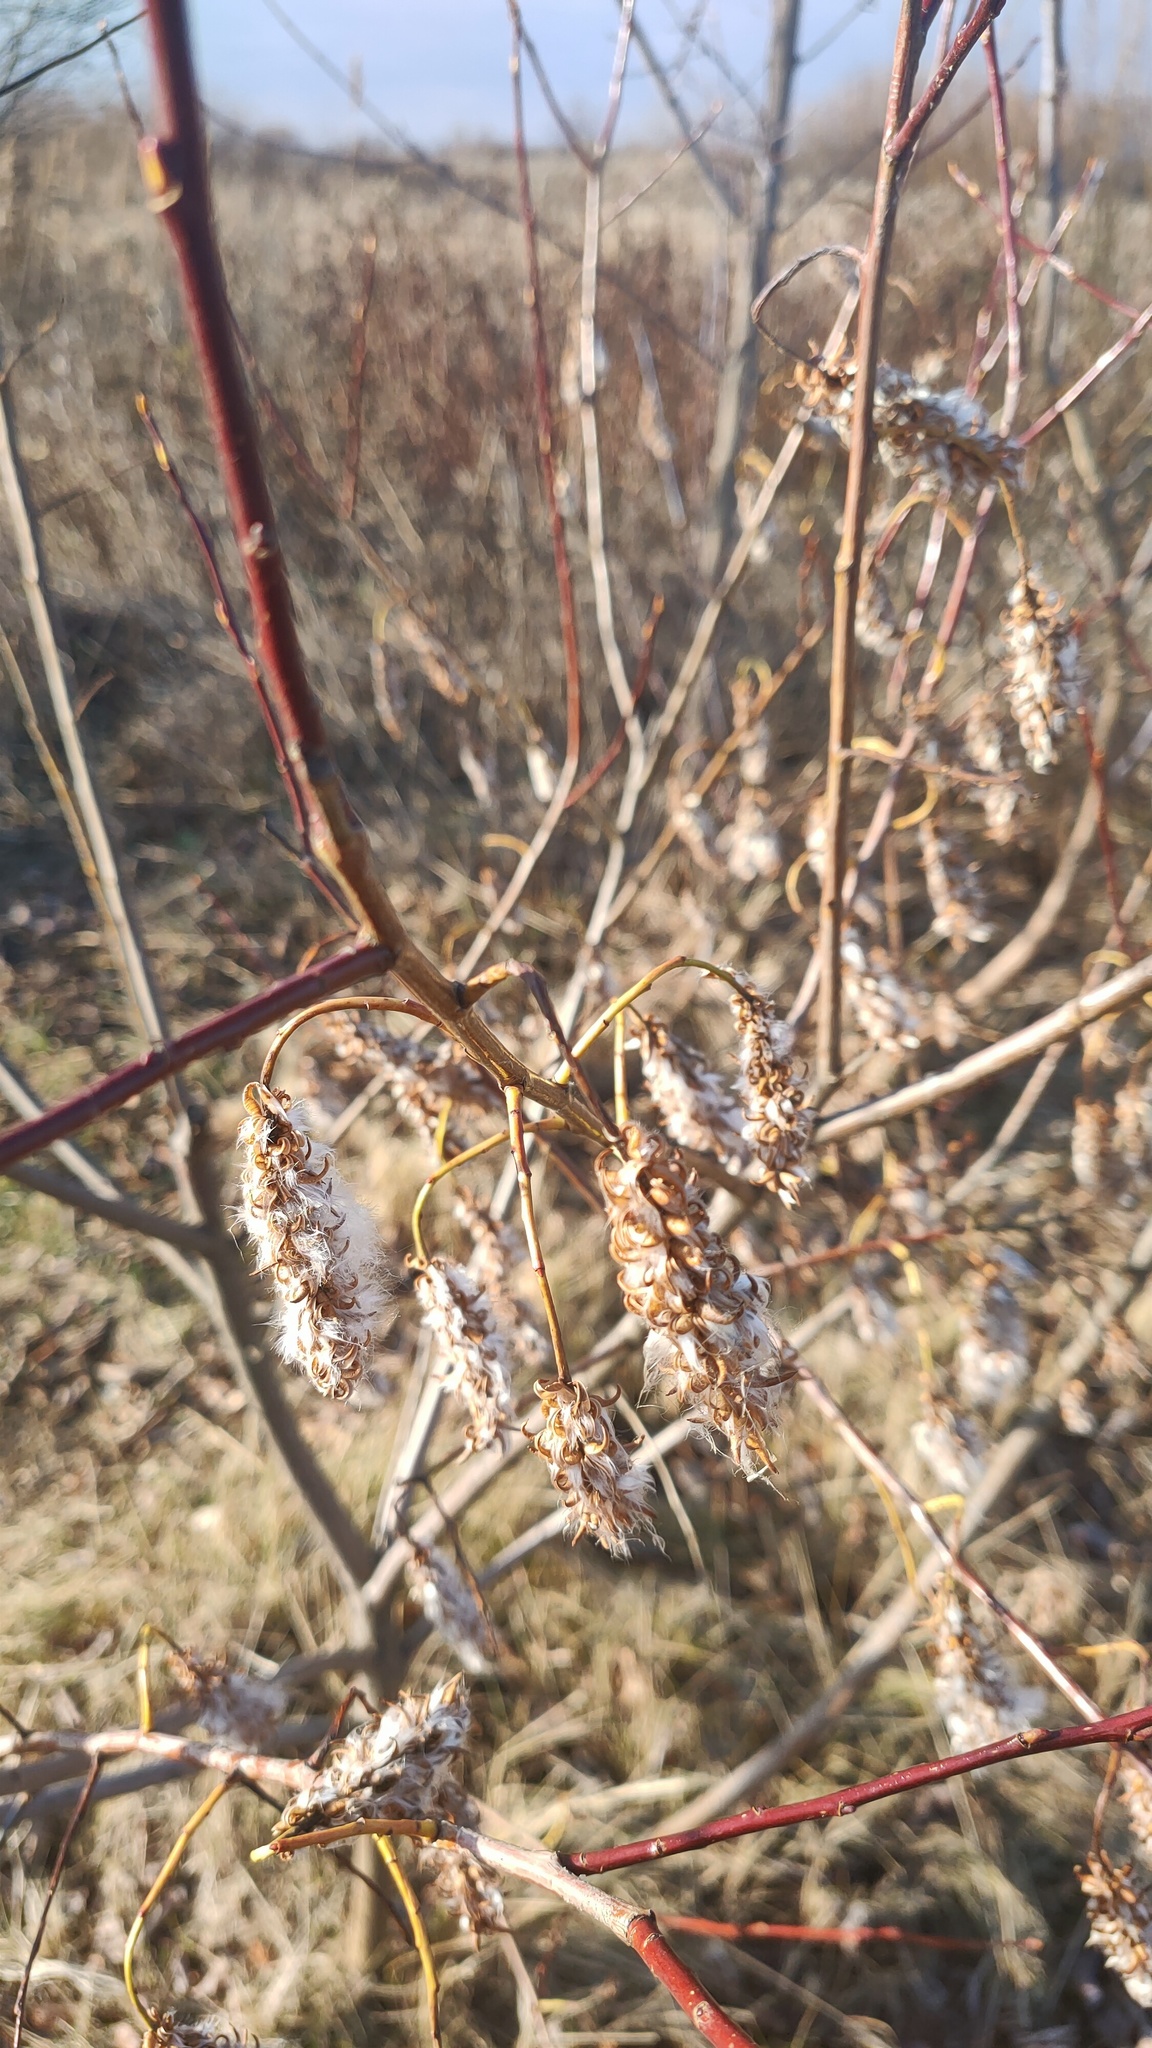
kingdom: Plantae
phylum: Tracheophyta
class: Magnoliopsida
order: Malpighiales
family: Salicaceae
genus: Salix
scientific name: Salix pentandra
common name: Bay willow
